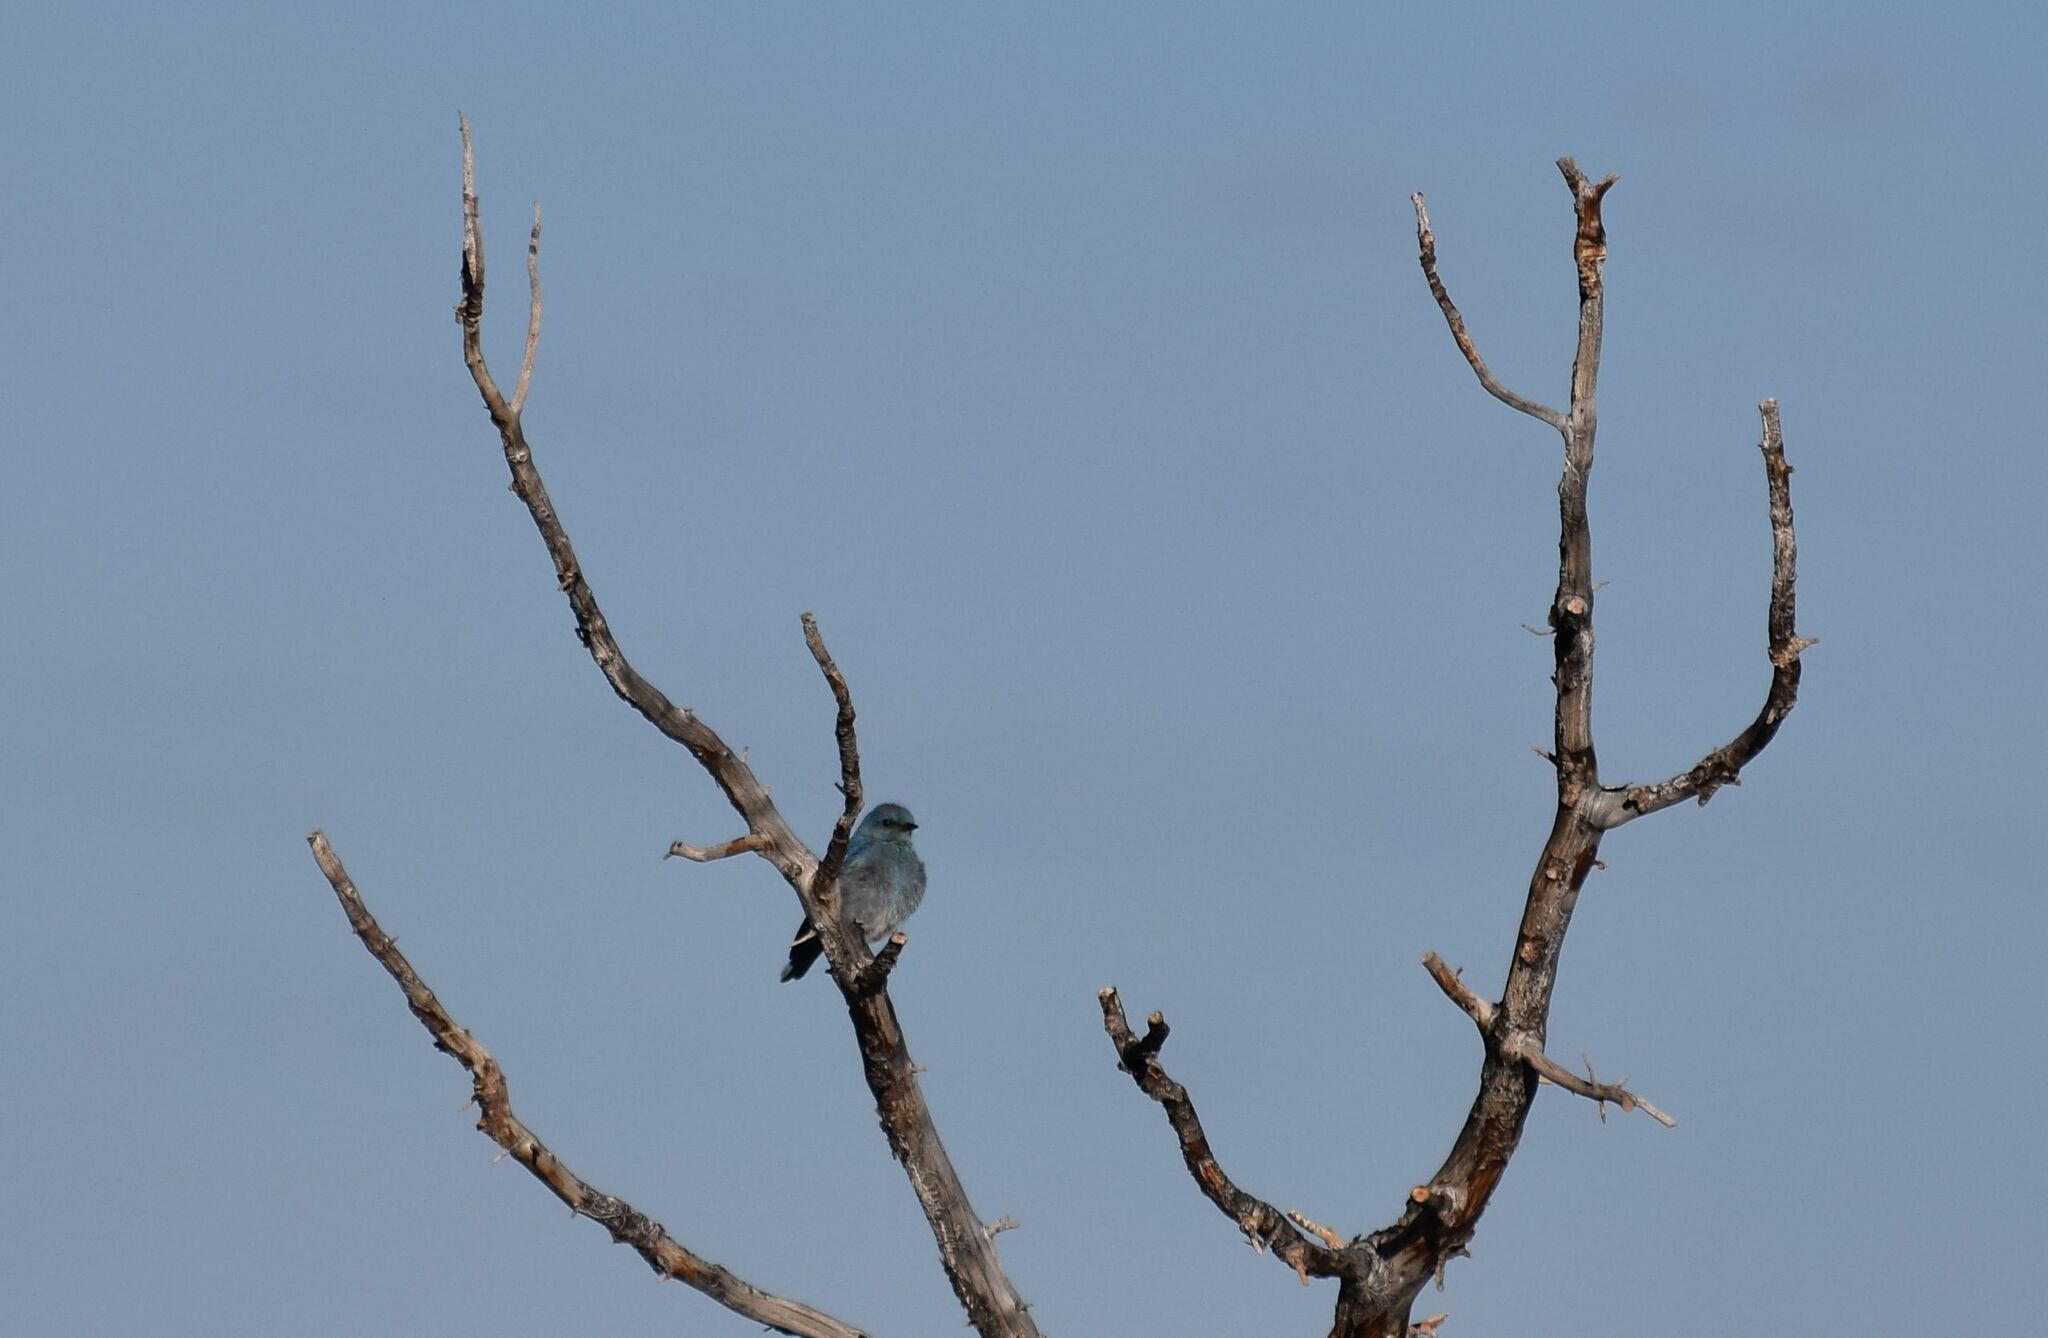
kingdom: Animalia
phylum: Chordata
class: Aves
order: Passeriformes
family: Turdidae
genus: Sialia
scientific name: Sialia currucoides
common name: Mountain bluebird
